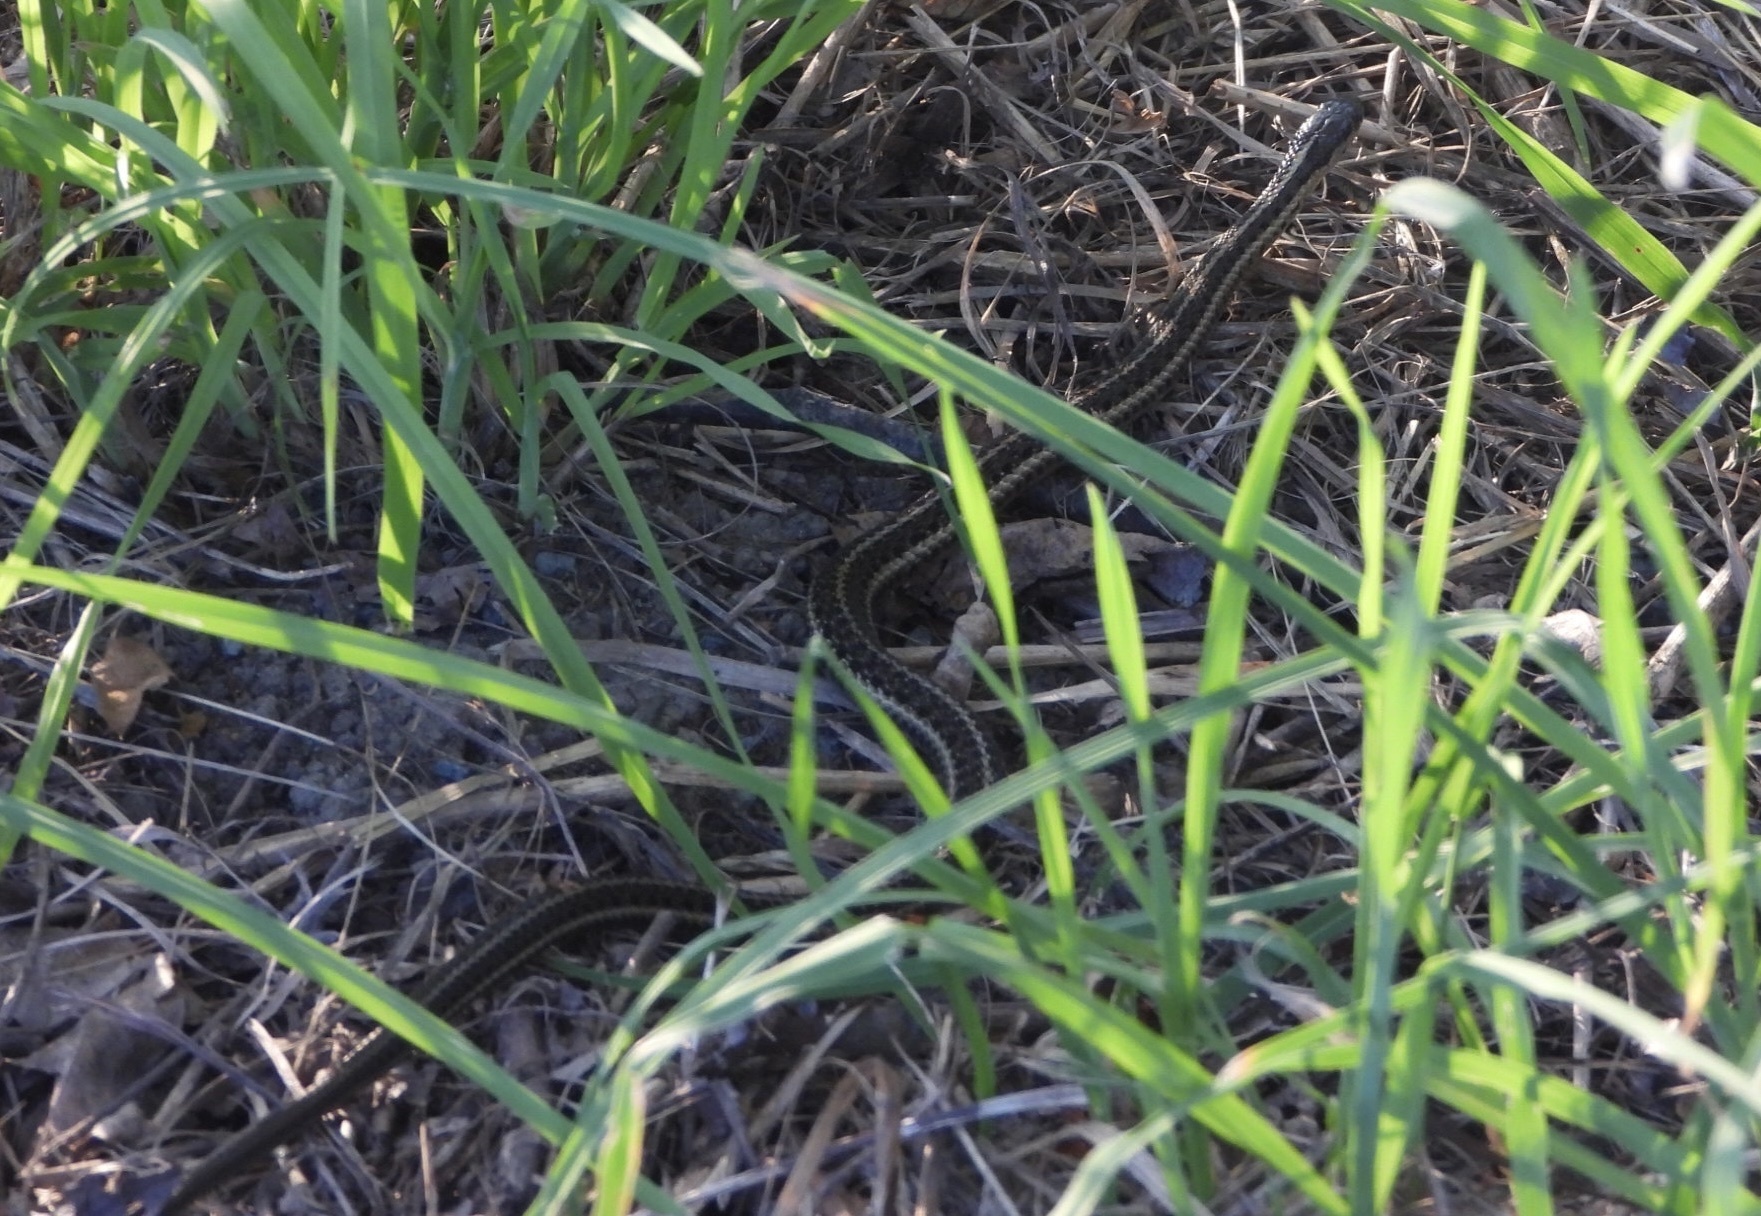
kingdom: Animalia
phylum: Chordata
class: Squamata
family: Colubridae
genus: Thamnophis
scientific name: Thamnophis ordinoides
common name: Northwestern garter snake
